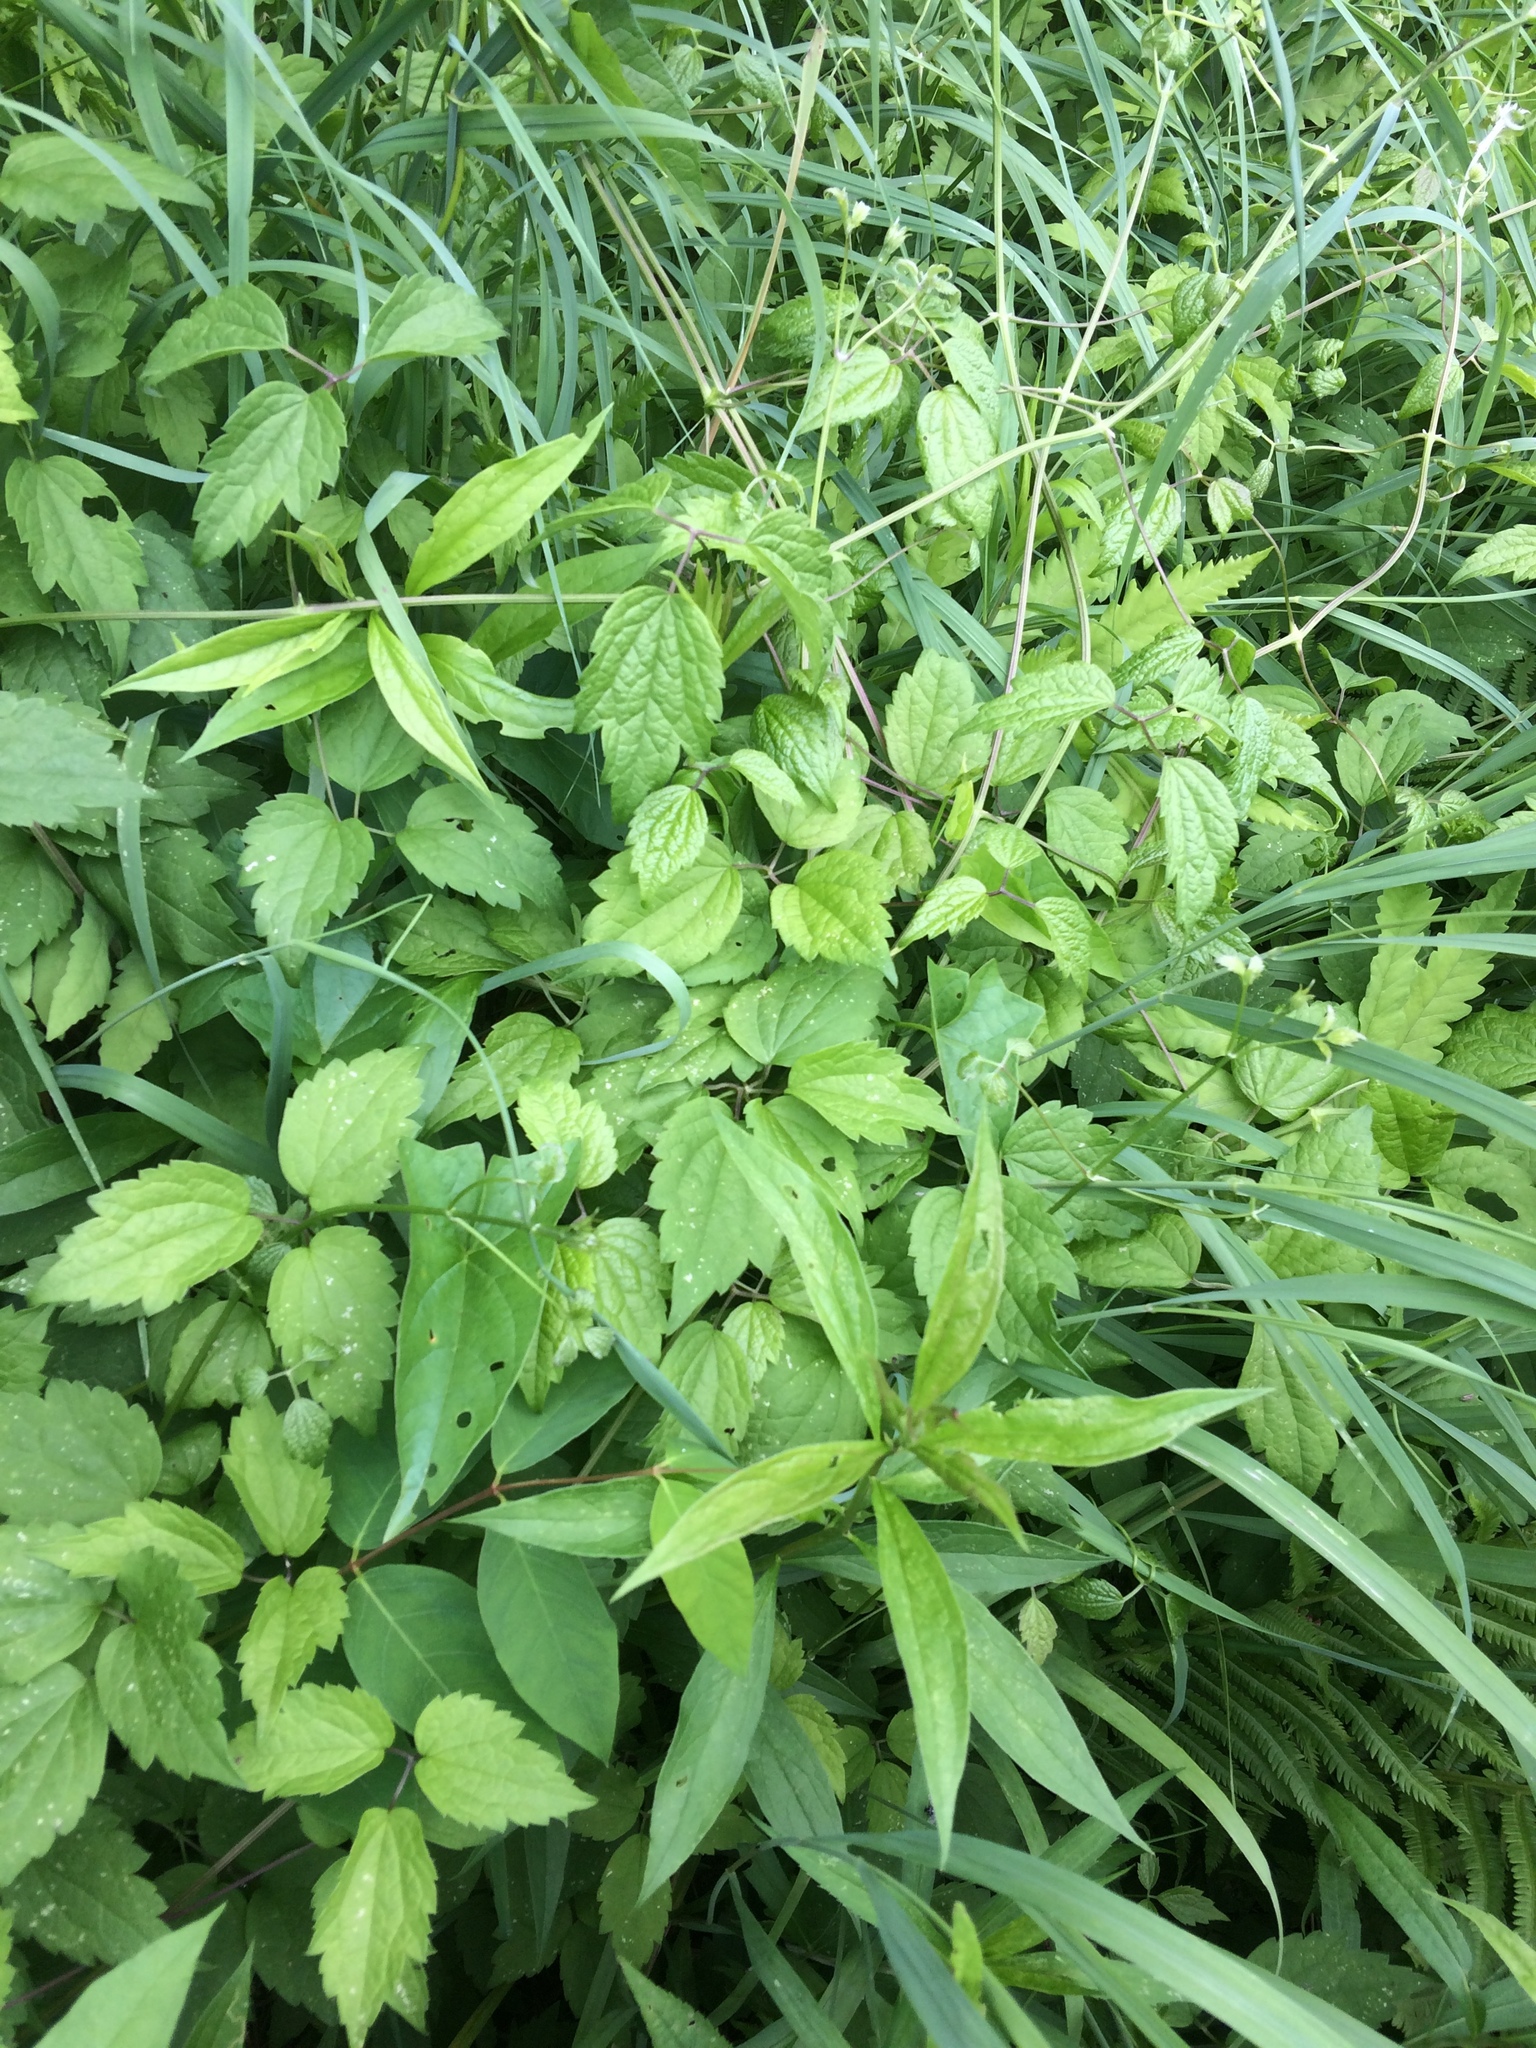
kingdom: Plantae
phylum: Tracheophyta
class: Magnoliopsida
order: Ranunculales
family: Ranunculaceae
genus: Clematis
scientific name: Clematis virginiana
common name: Virgin's-bower
